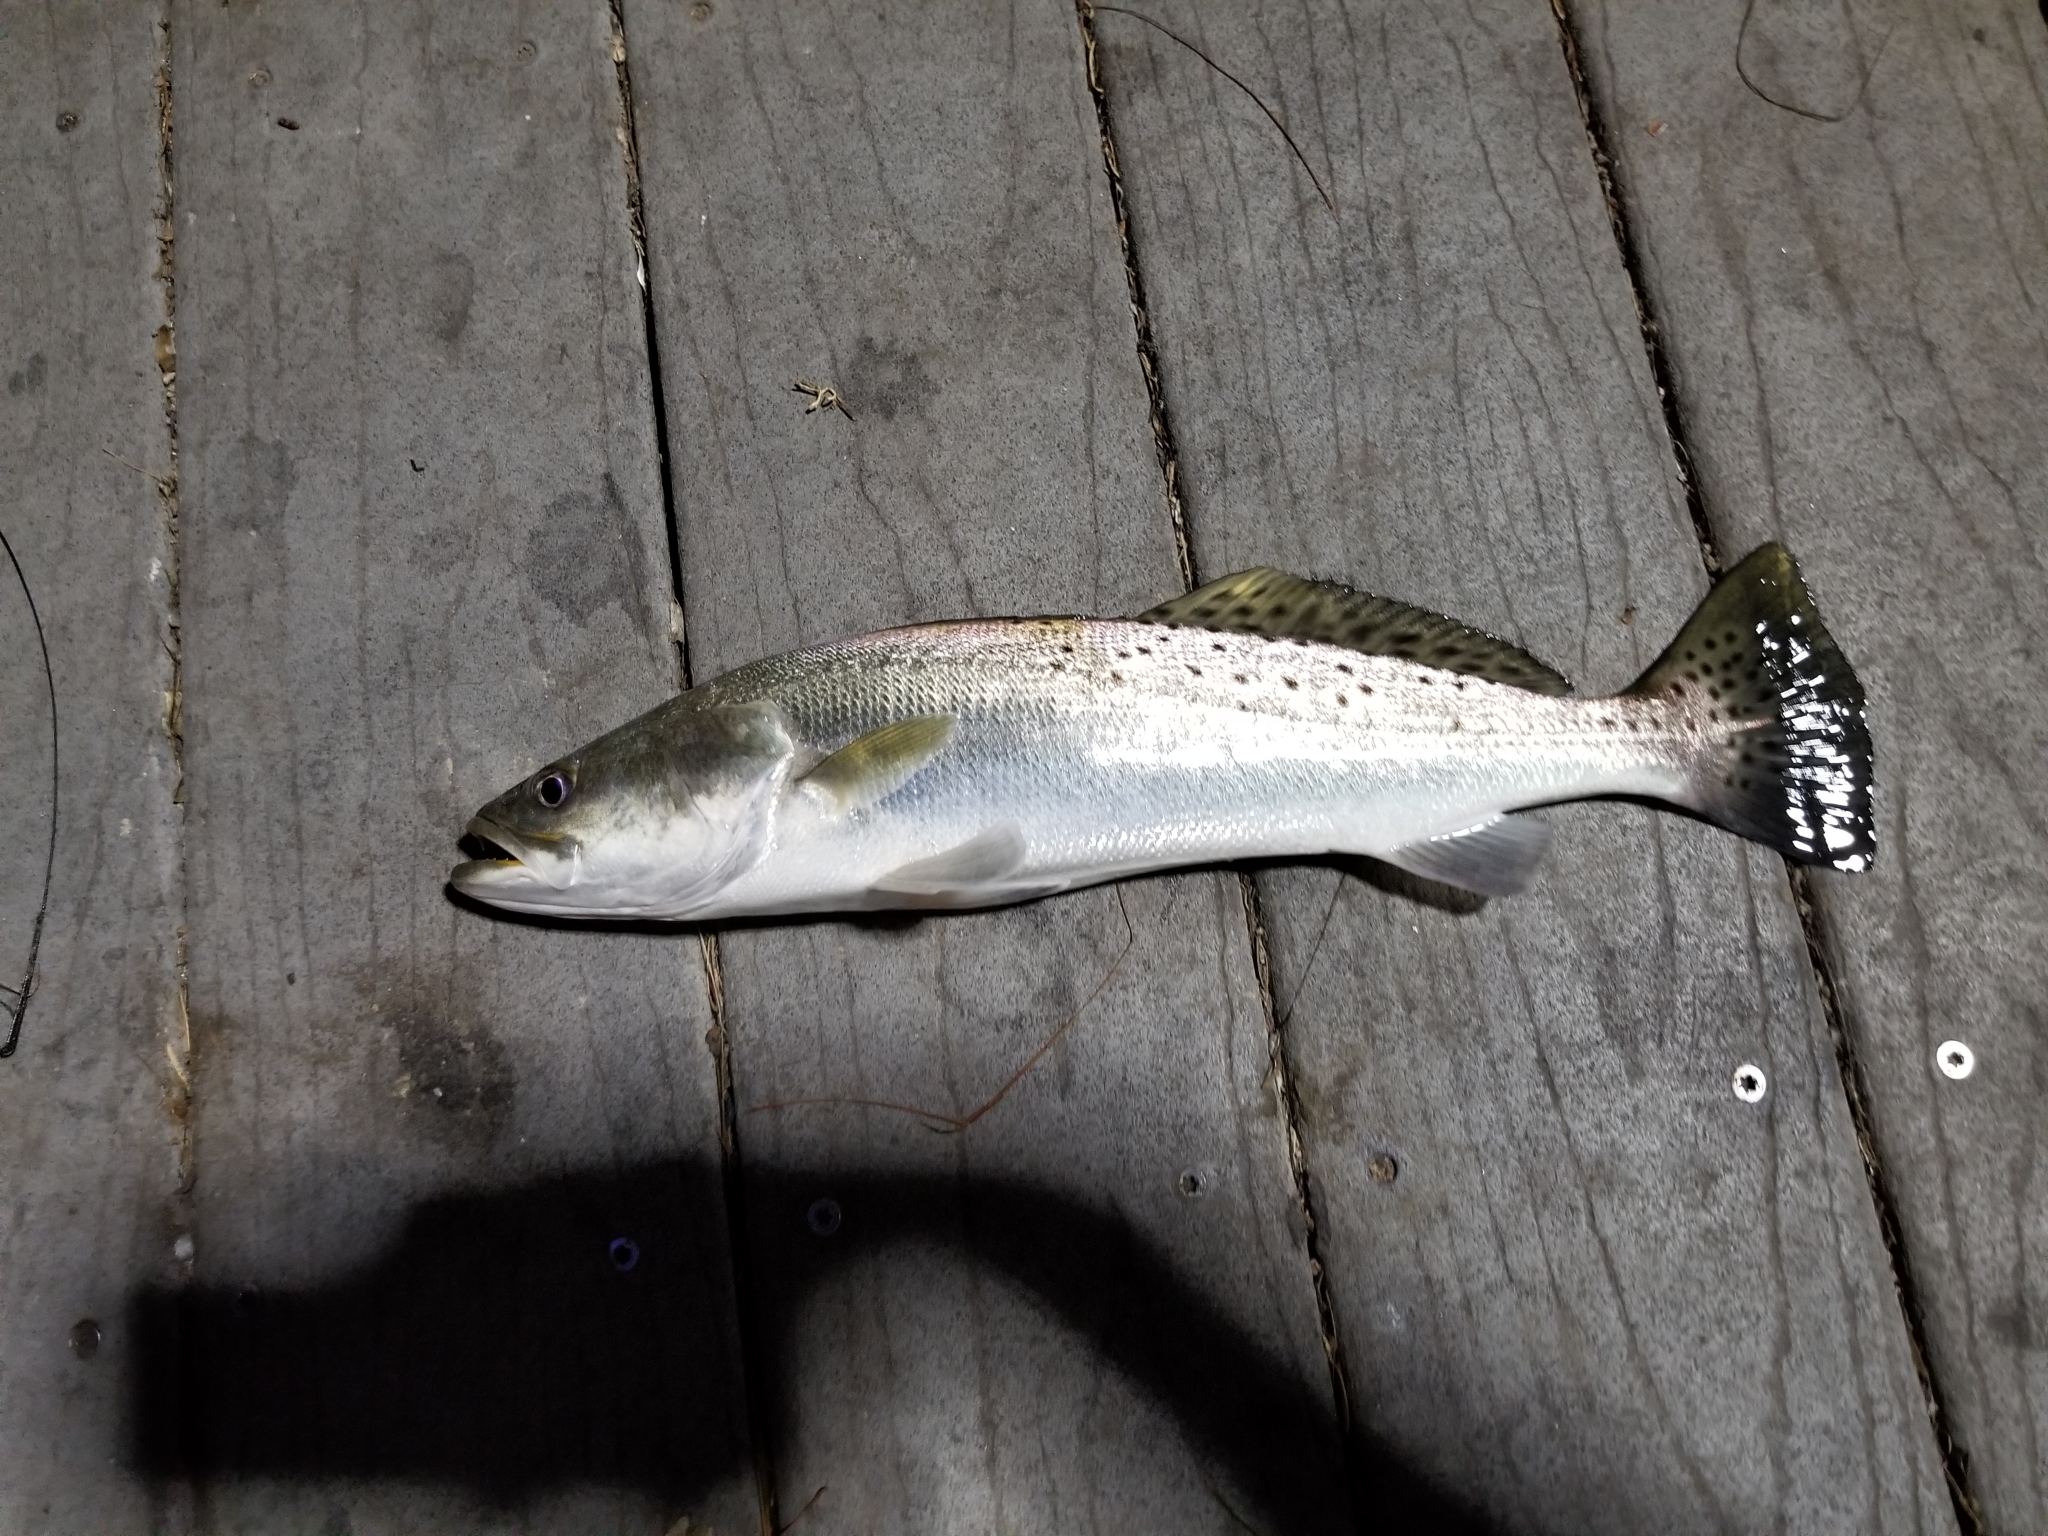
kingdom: Animalia
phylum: Chordata
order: Perciformes
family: Sciaenidae
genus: Cynoscion
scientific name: Cynoscion nebulosus
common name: Spotted seatrout
